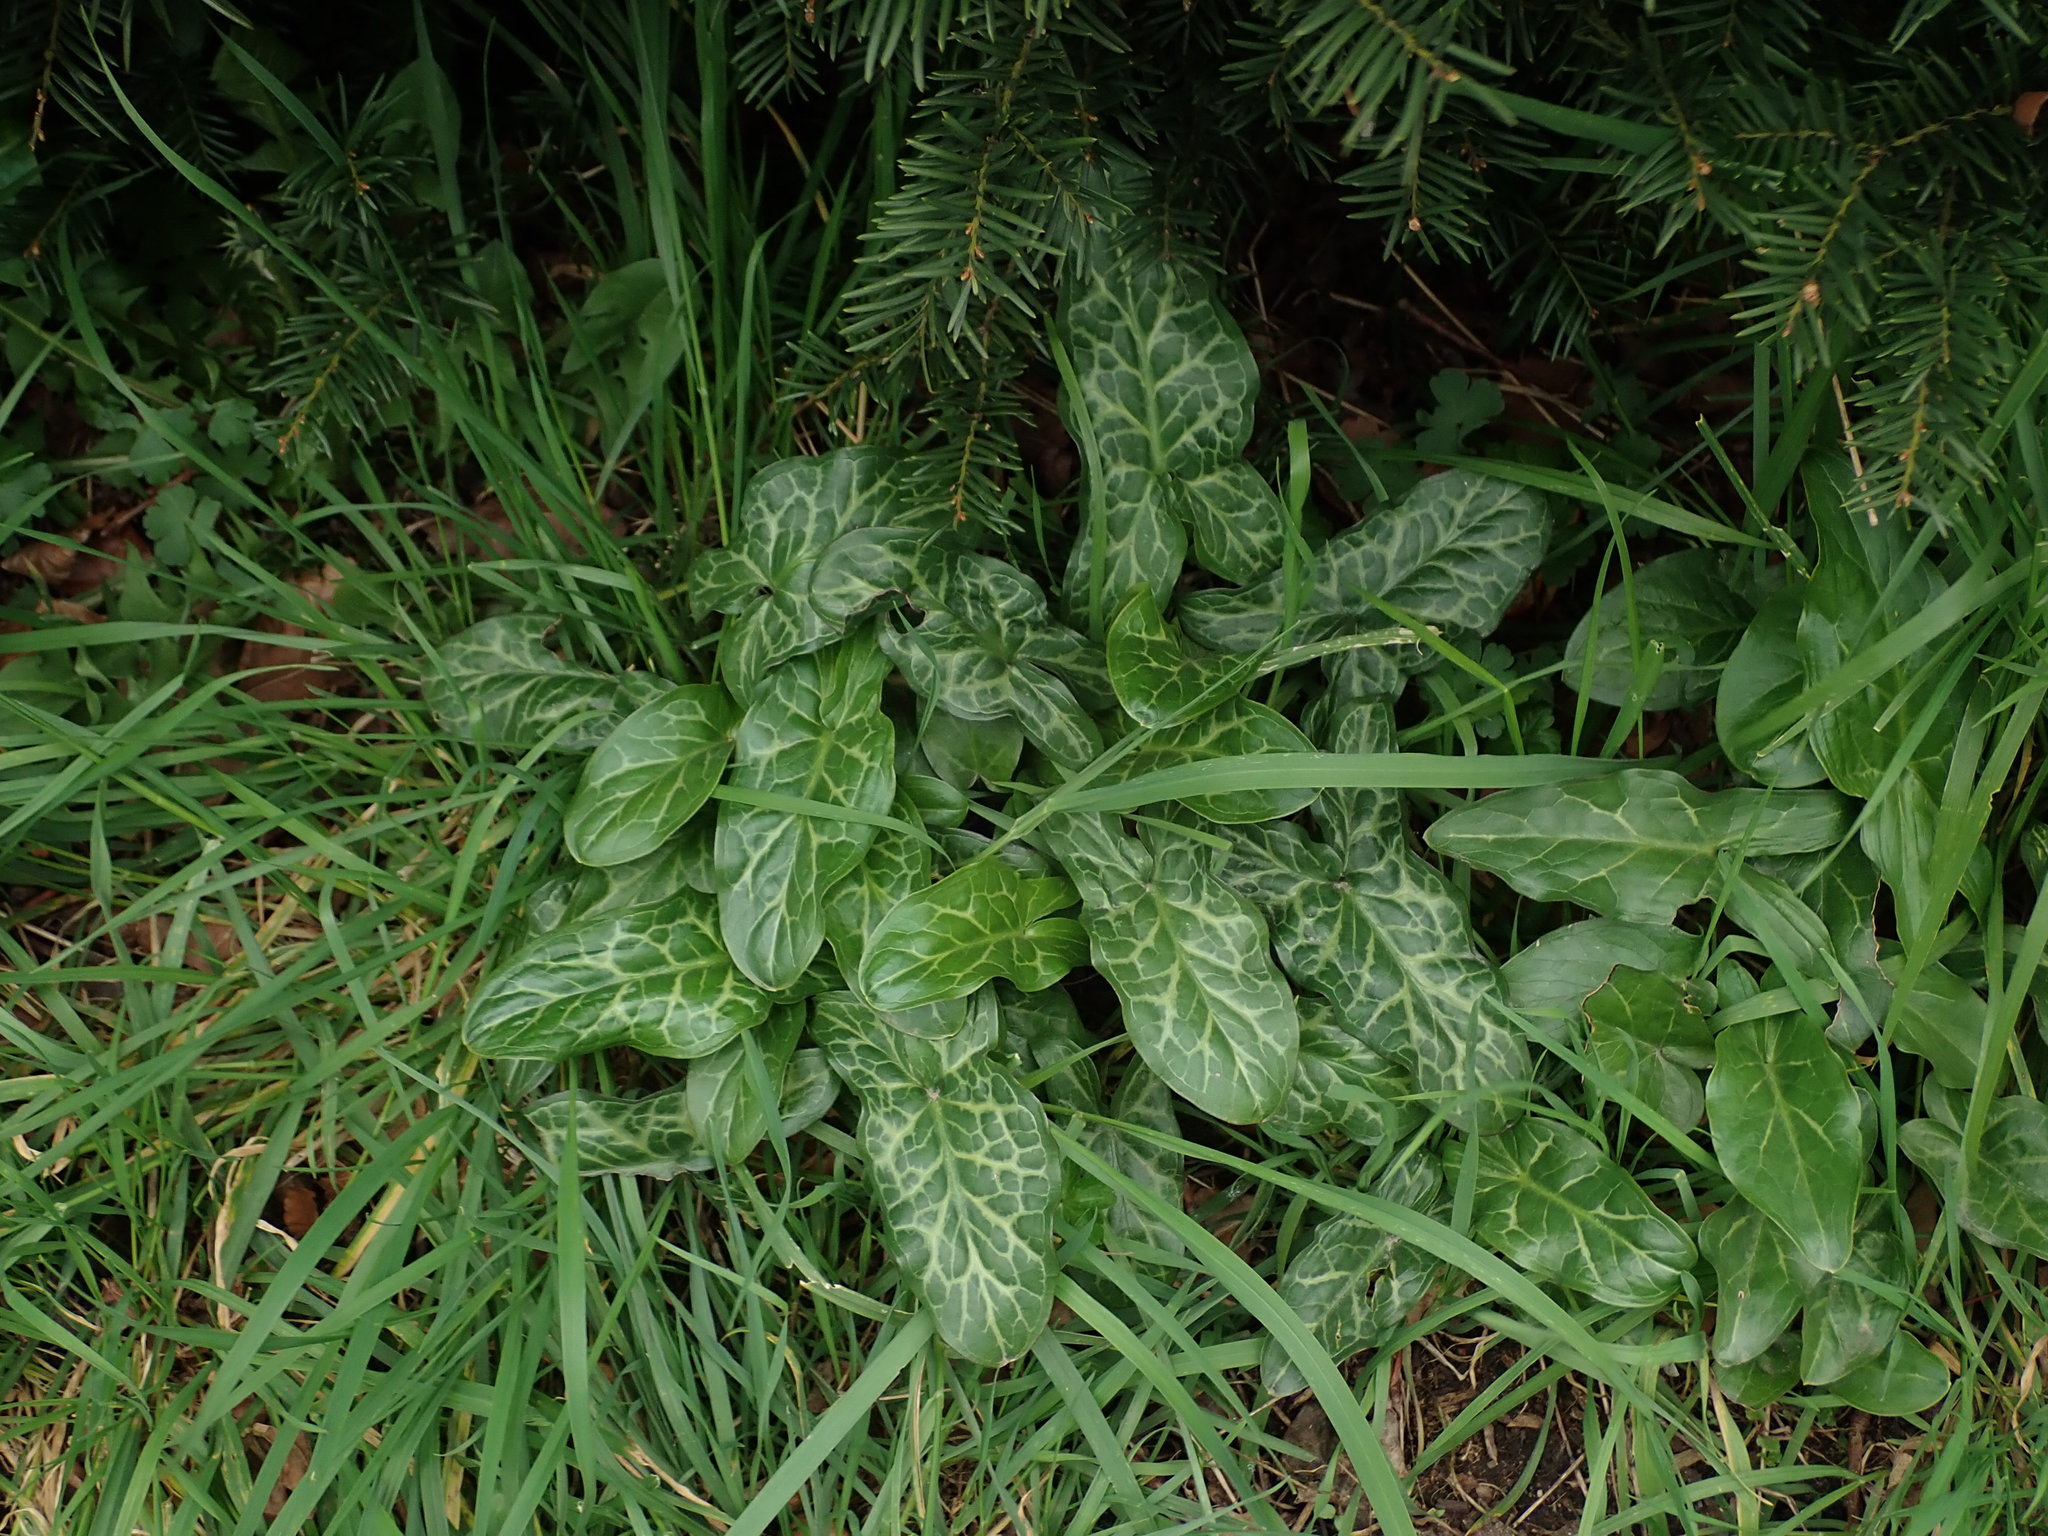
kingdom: Plantae
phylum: Tracheophyta
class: Liliopsida
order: Alismatales
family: Araceae
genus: Arum
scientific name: Arum italicum
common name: Italian lords-and-ladies
